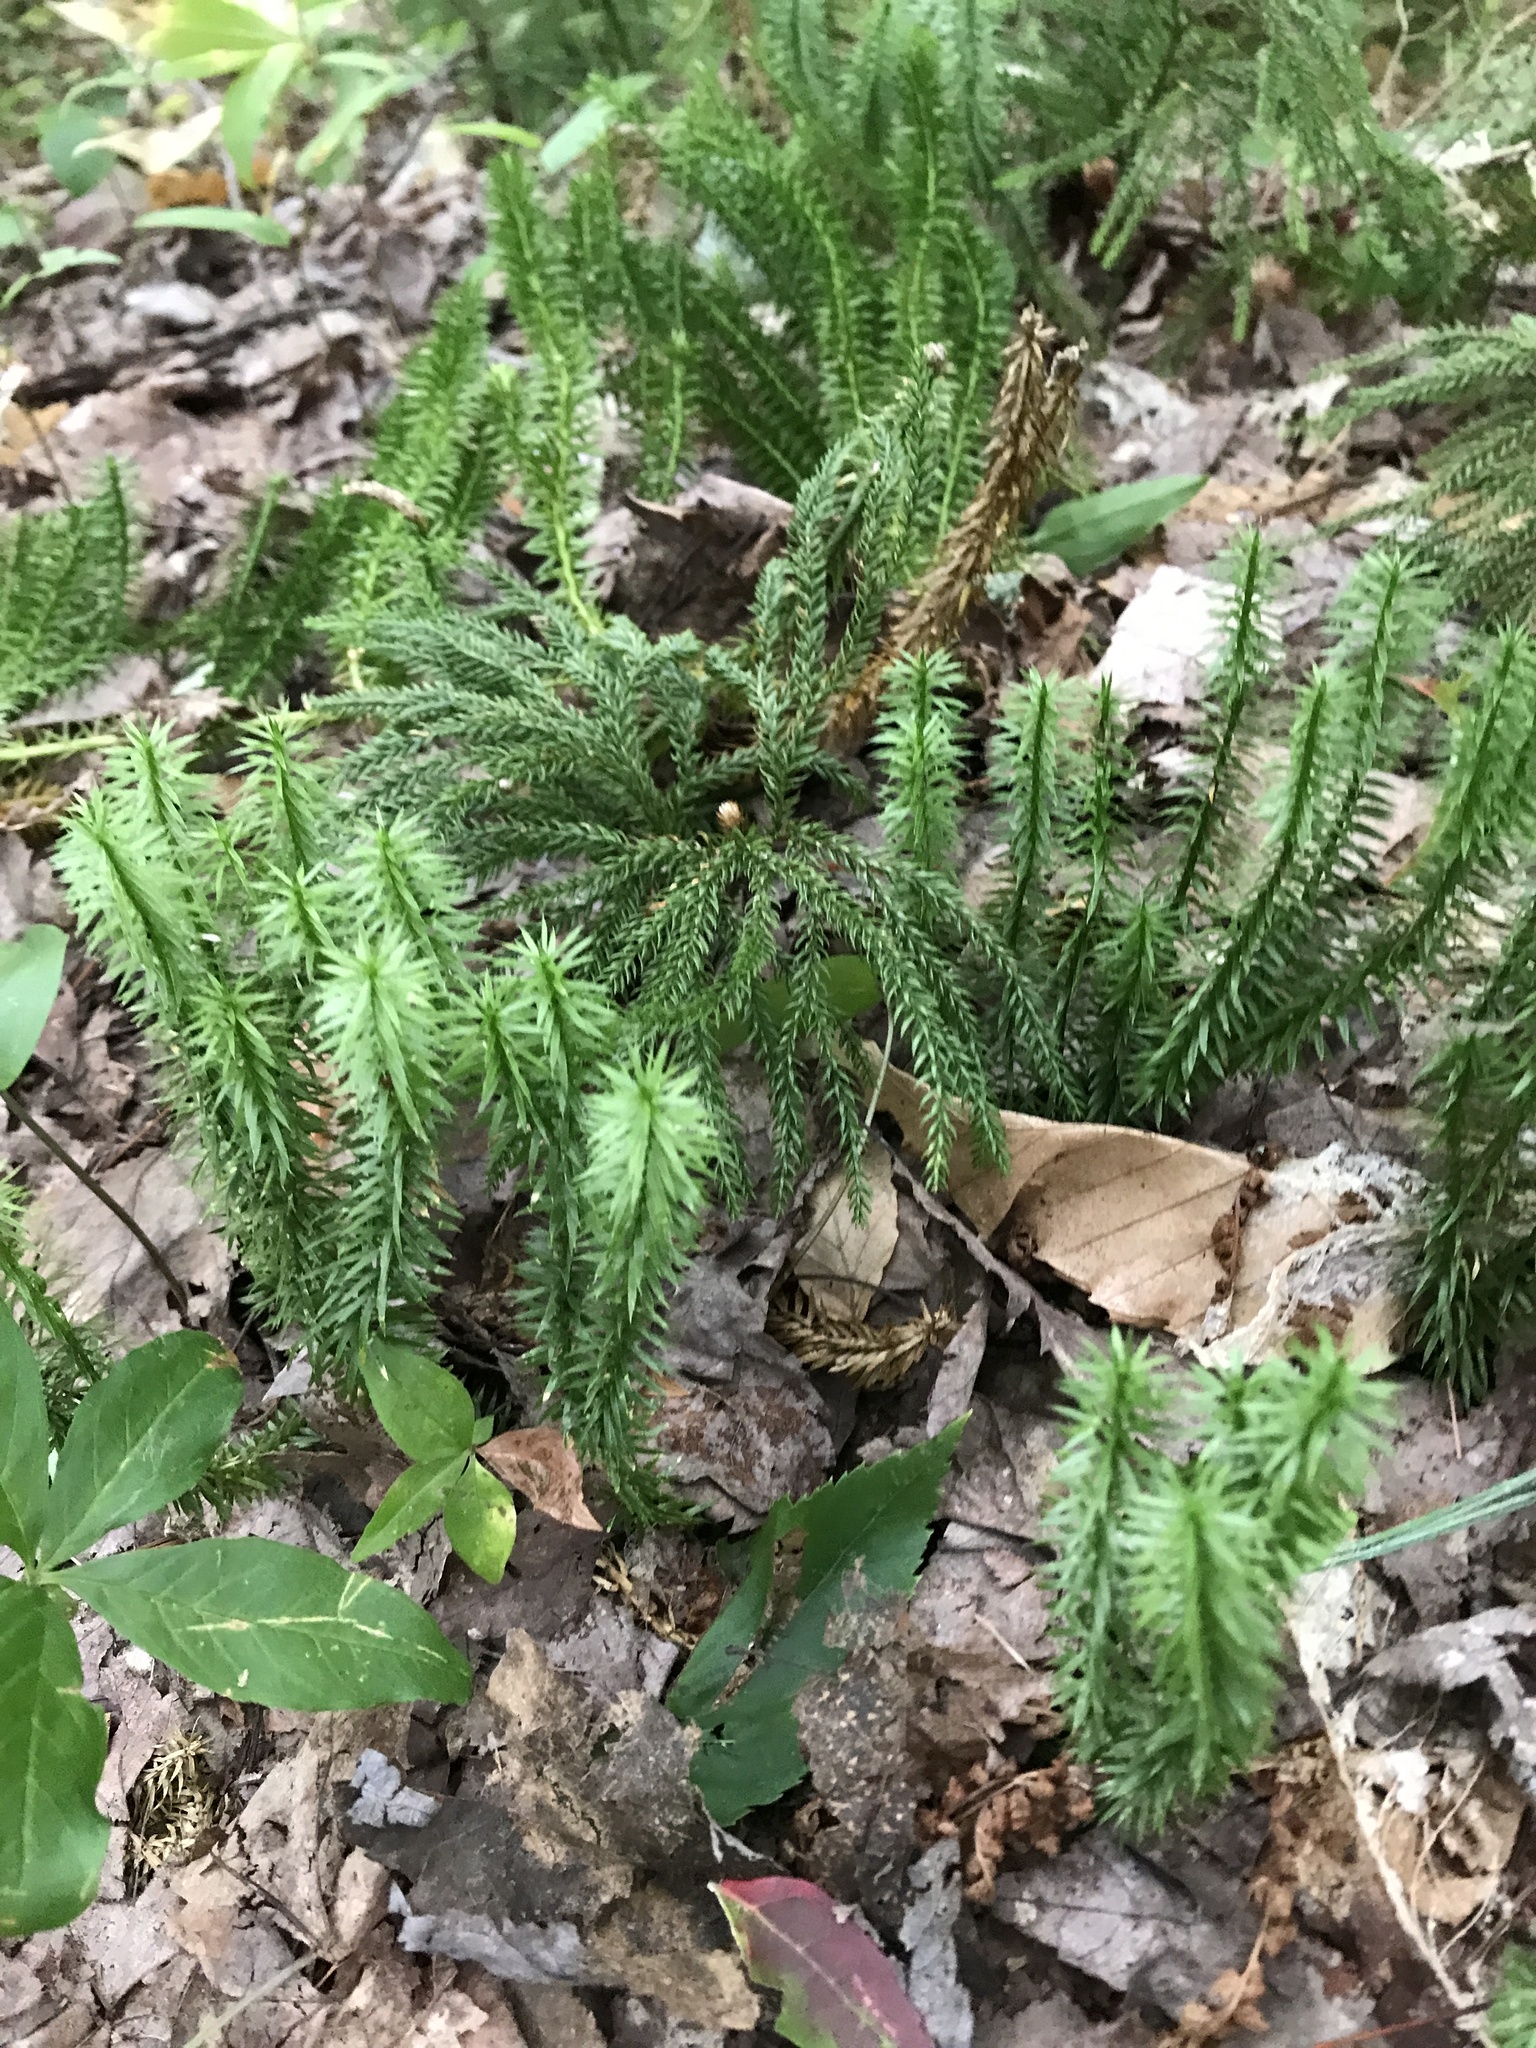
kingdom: Plantae
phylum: Tracheophyta
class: Lycopodiopsida
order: Lycopodiales
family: Lycopodiaceae
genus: Spinulum
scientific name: Spinulum annotinum
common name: Interrupted club-moss
